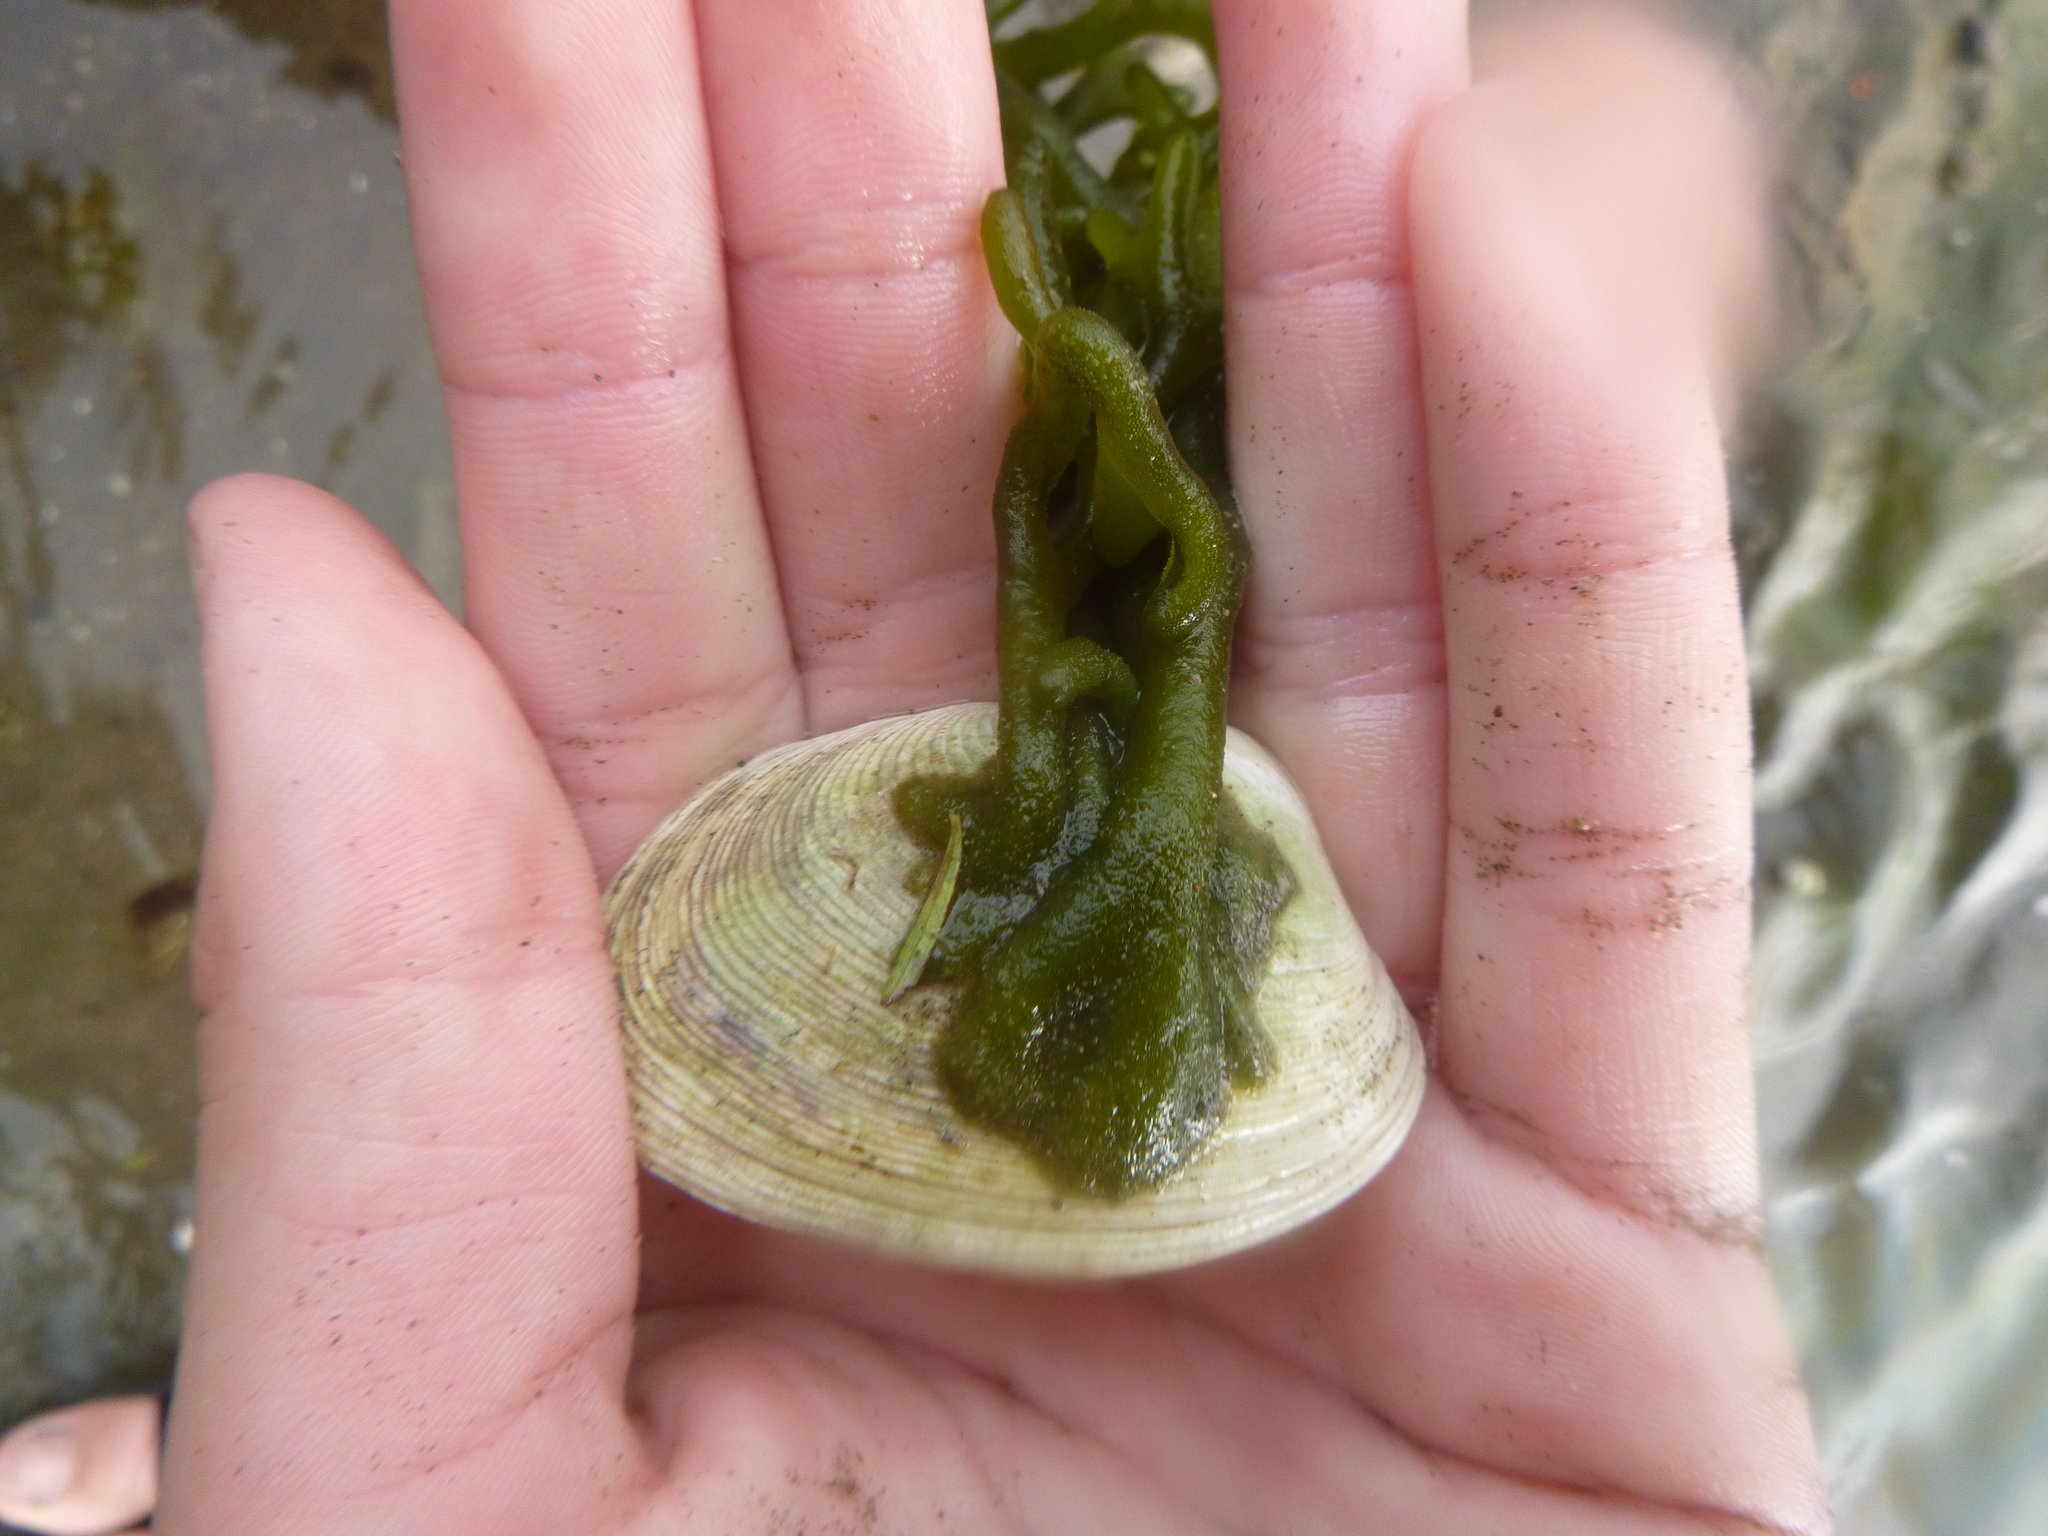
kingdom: Animalia
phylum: Mollusca
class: Bivalvia
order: Venerida
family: Veneridae
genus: Venerupis
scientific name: Venerupis largillierti
